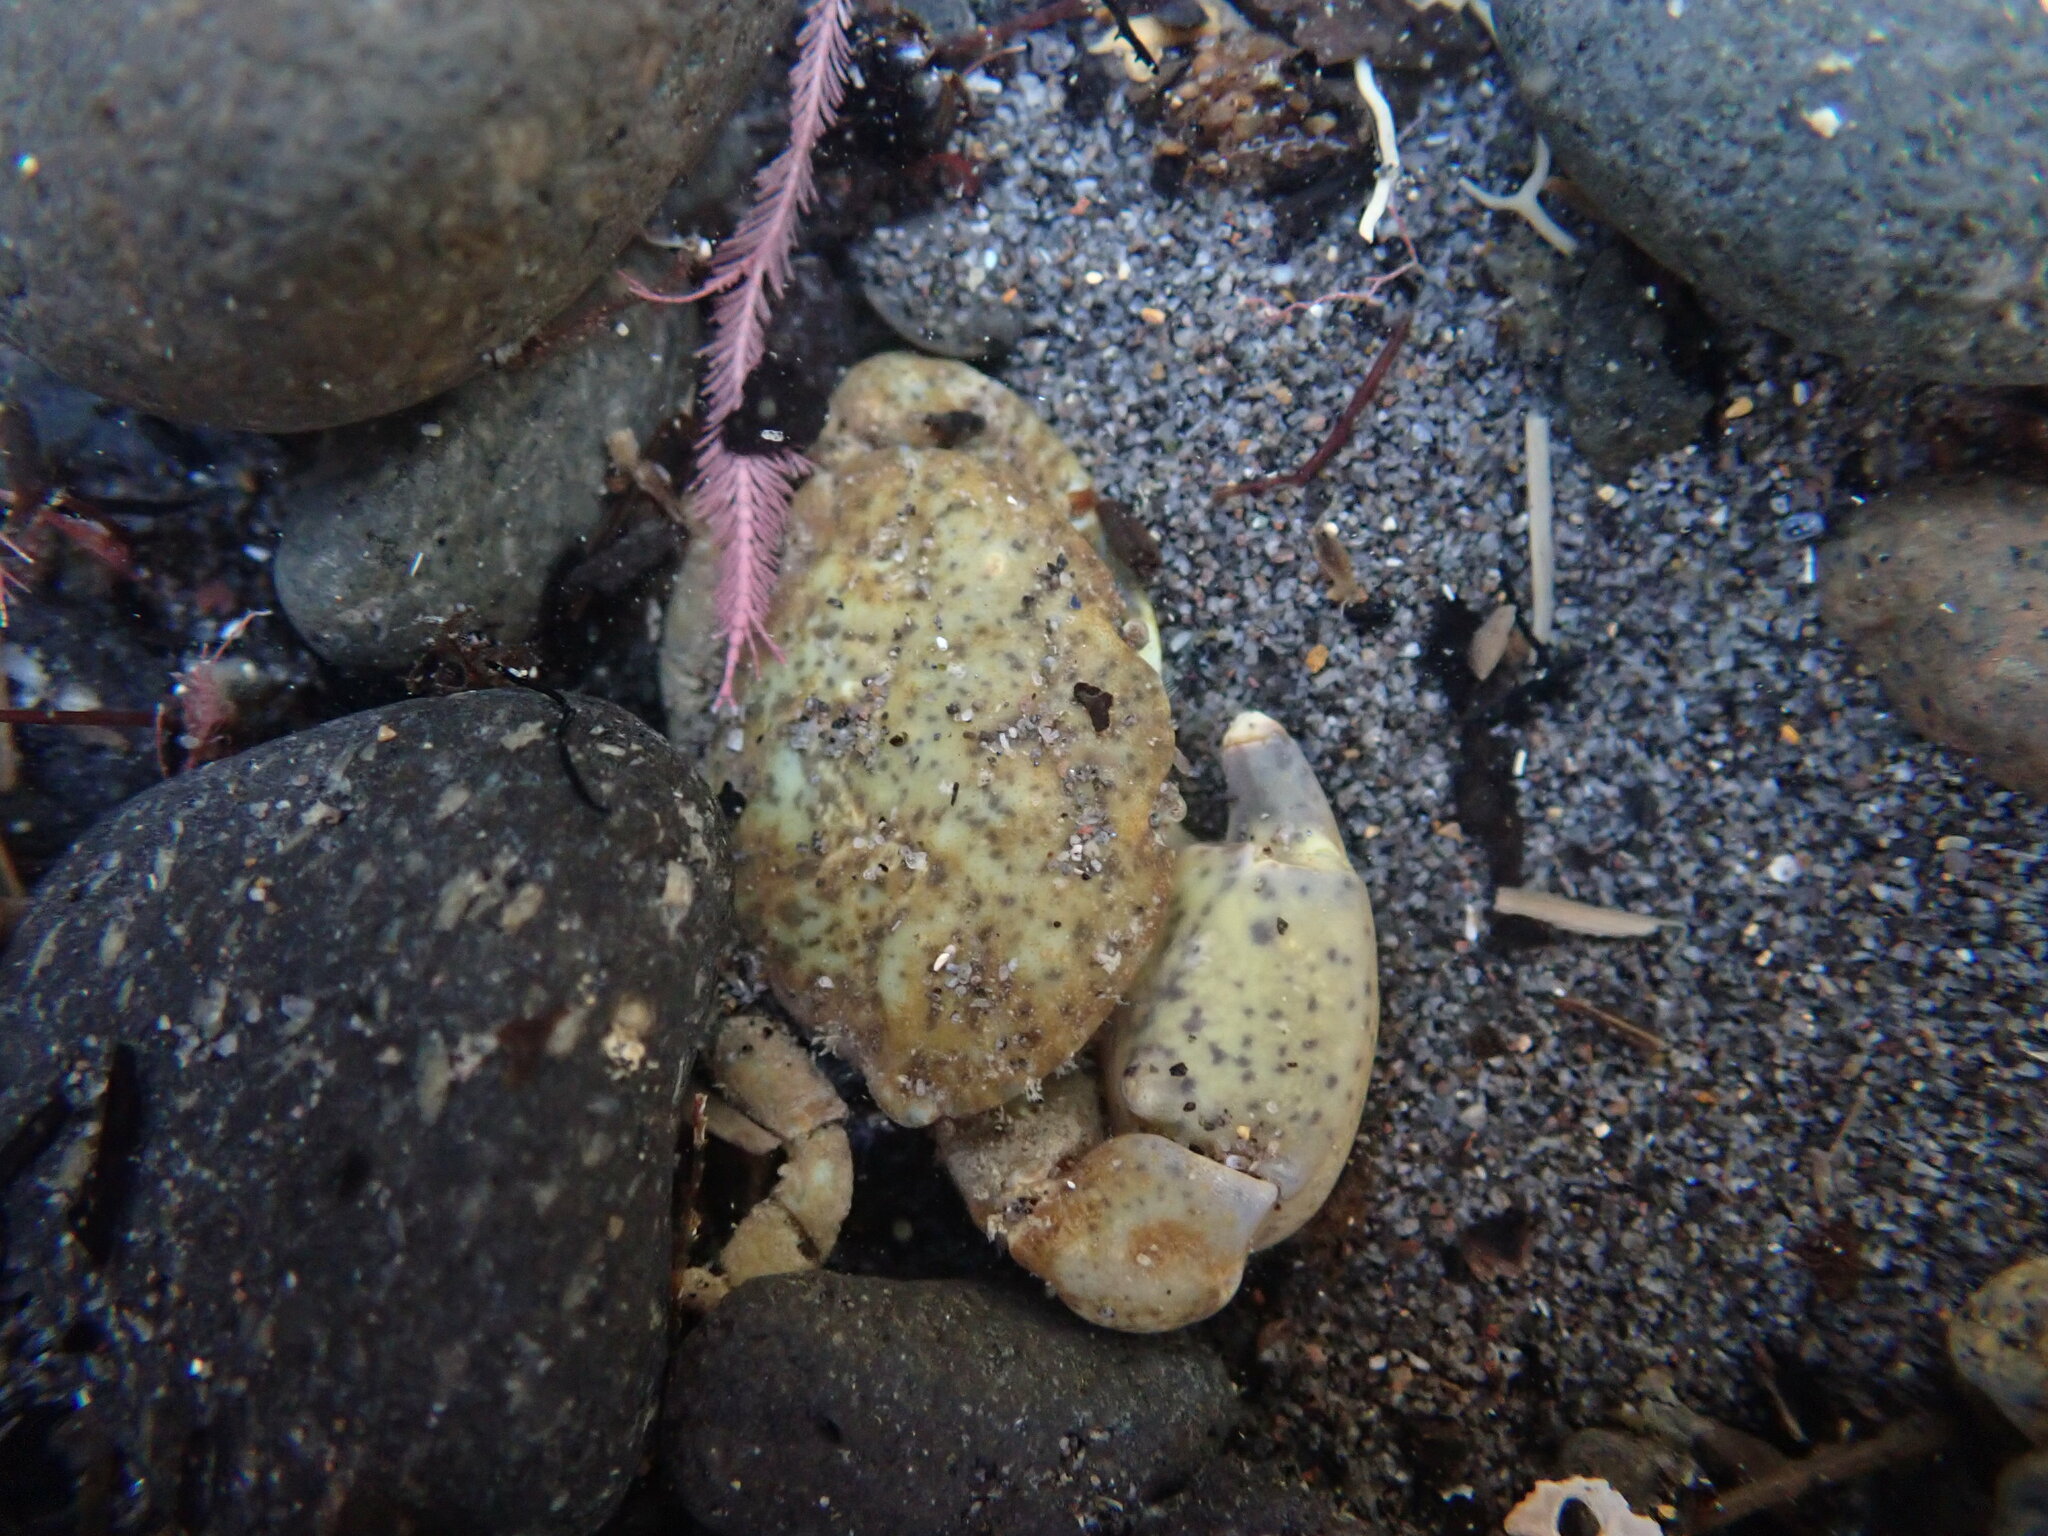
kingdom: Animalia
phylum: Arthropoda
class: Malacostraca
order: Decapoda
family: Heteroziidae
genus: Heterozius
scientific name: Heterozius rotundifrons
